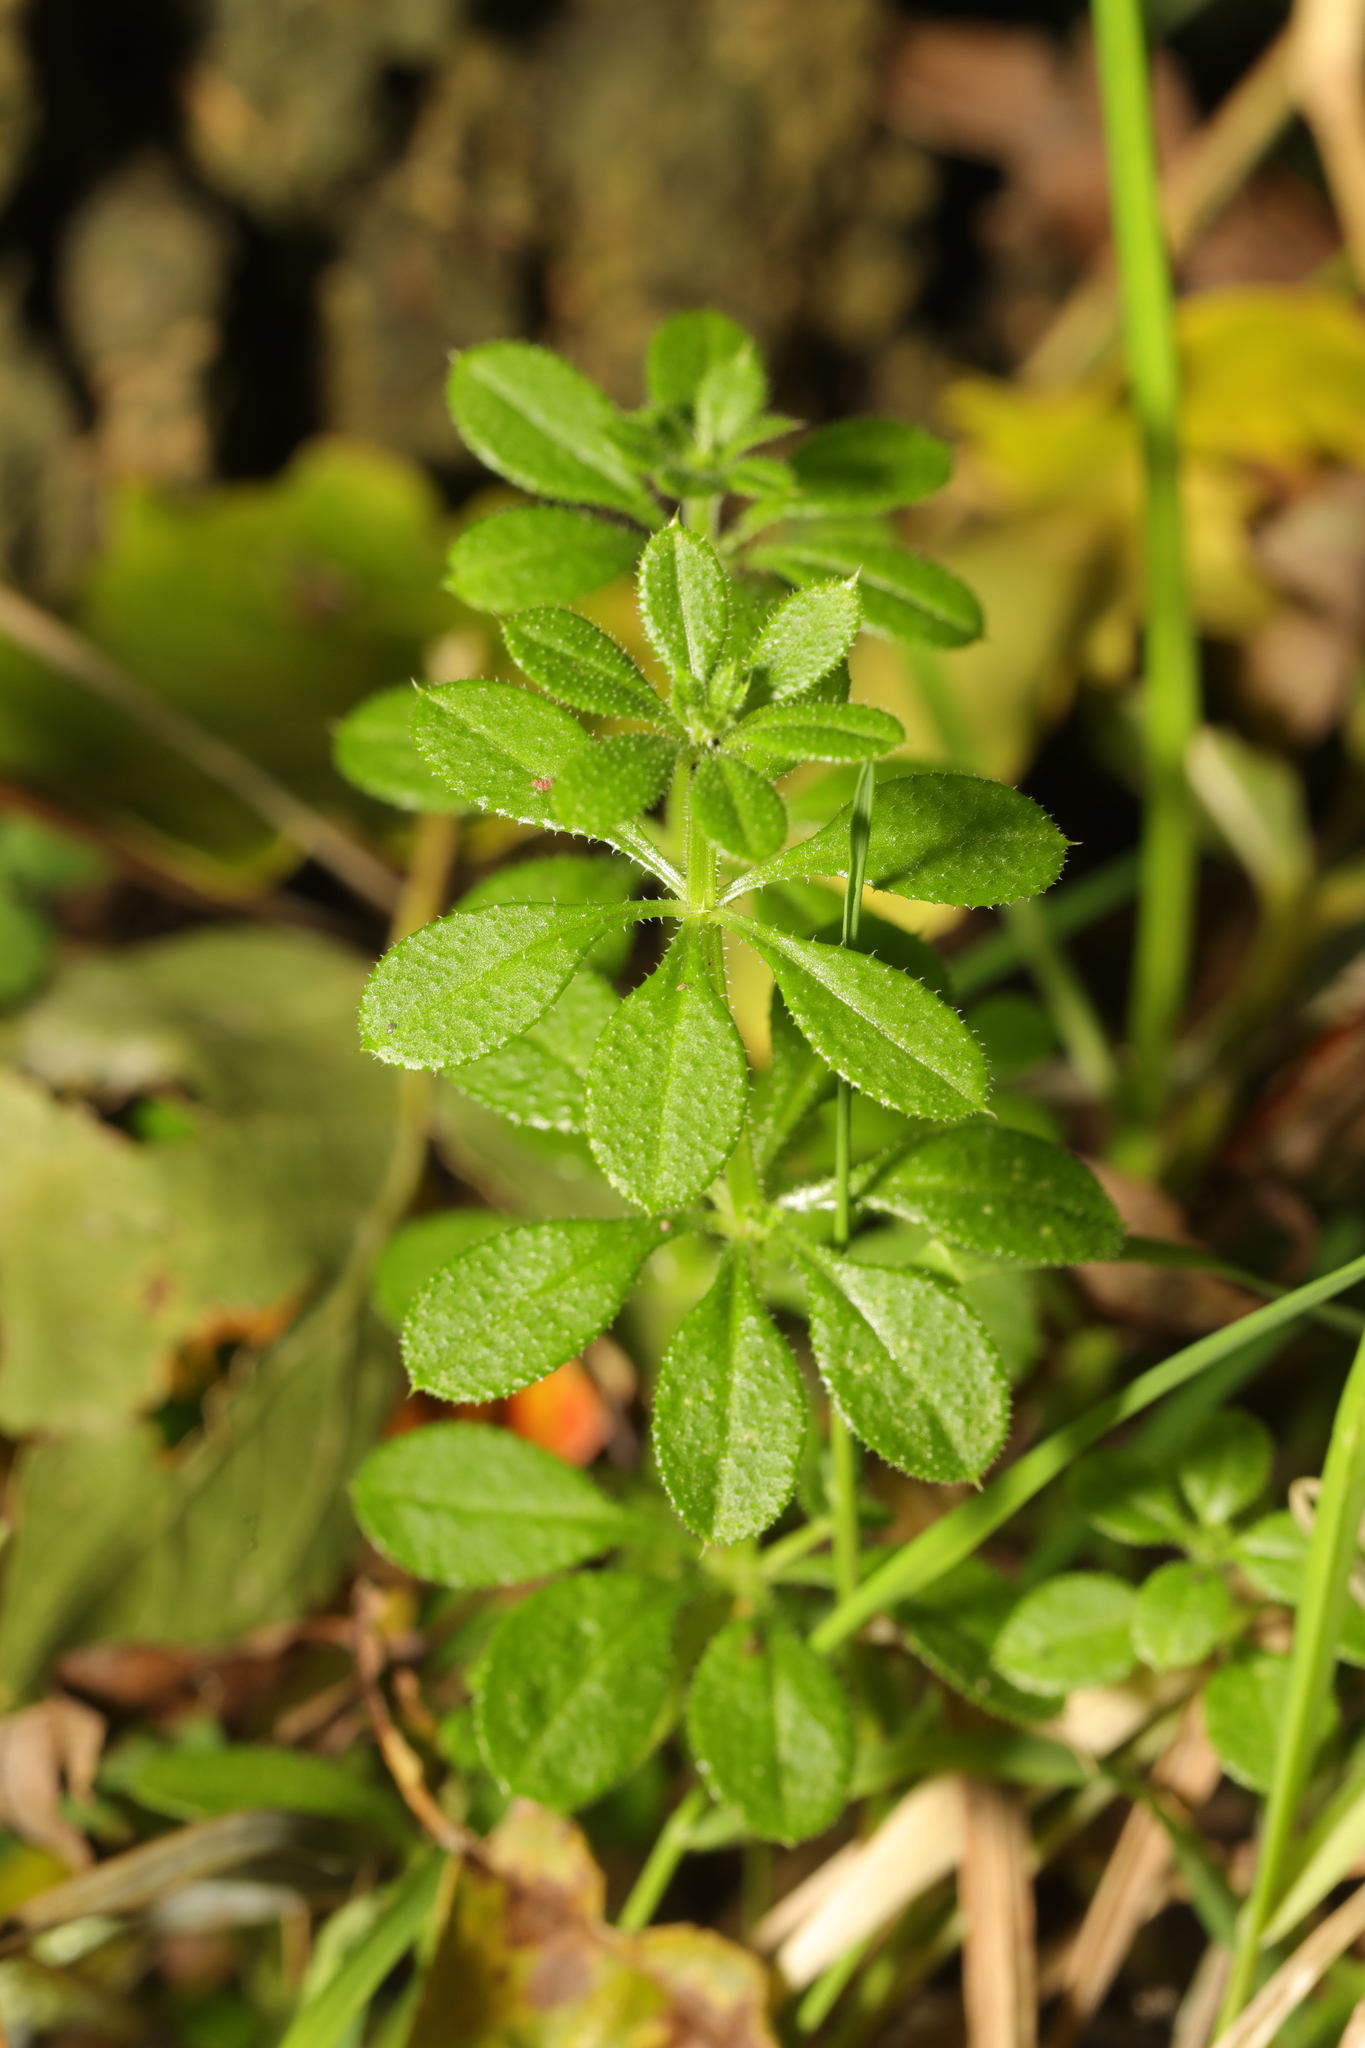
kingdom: Plantae
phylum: Tracheophyta
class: Magnoliopsida
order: Gentianales
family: Rubiaceae
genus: Galium
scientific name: Galium aparine
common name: Cleavers
